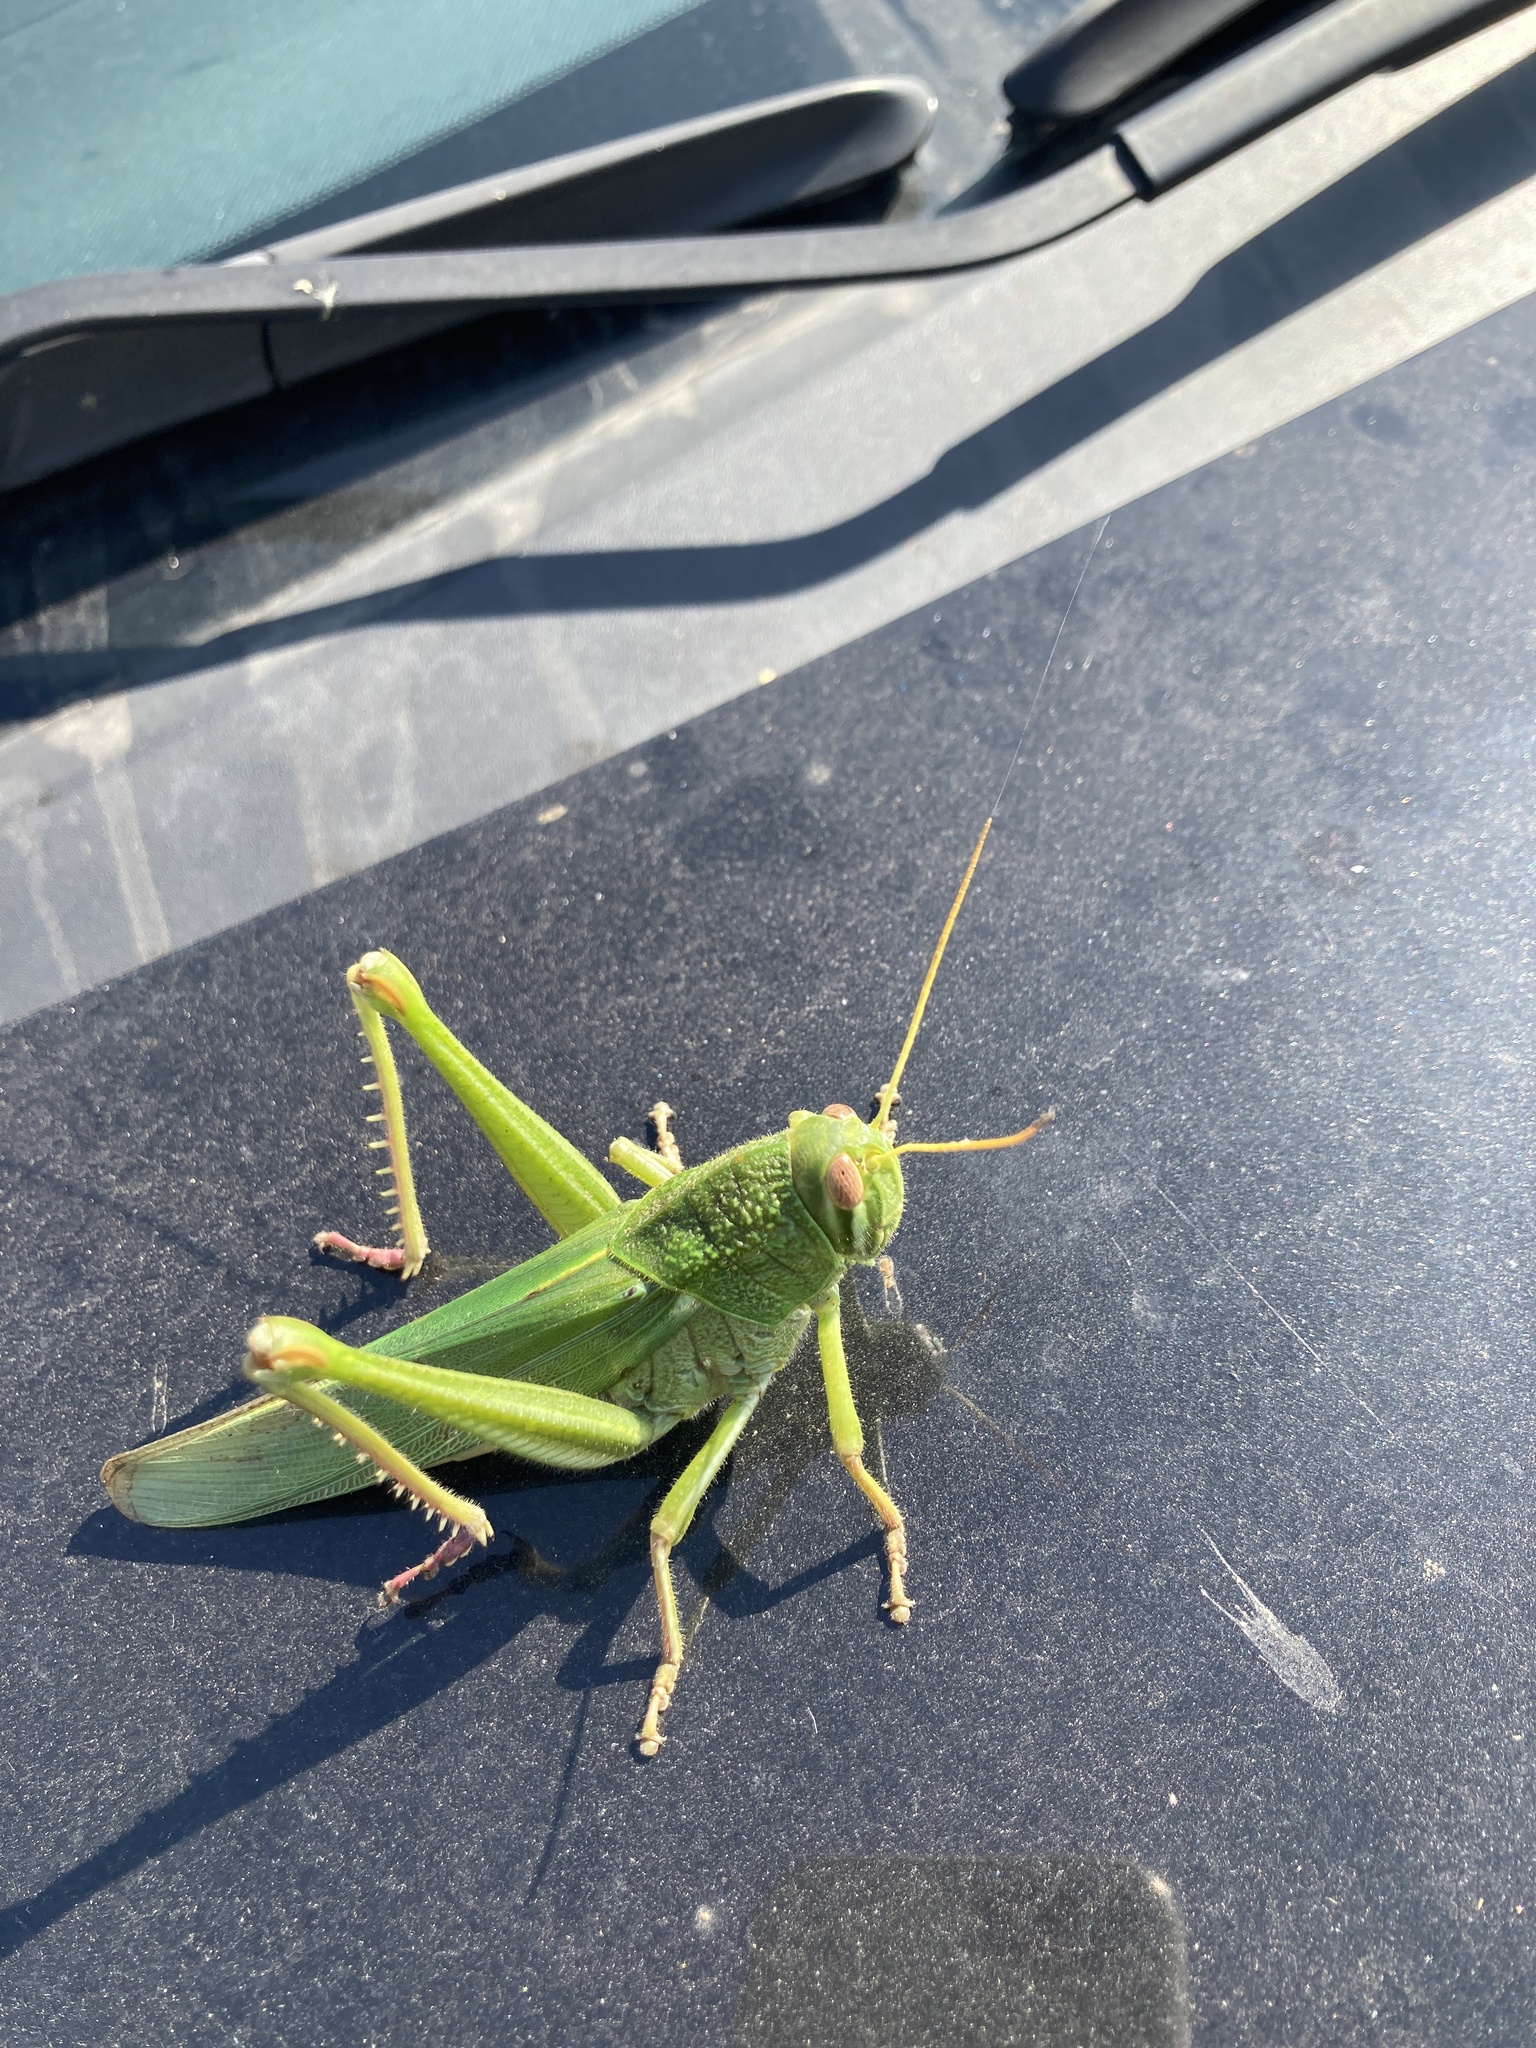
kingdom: Animalia
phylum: Arthropoda
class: Insecta
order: Orthoptera
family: Acrididae
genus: Chondracris
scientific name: Chondracris rosea
